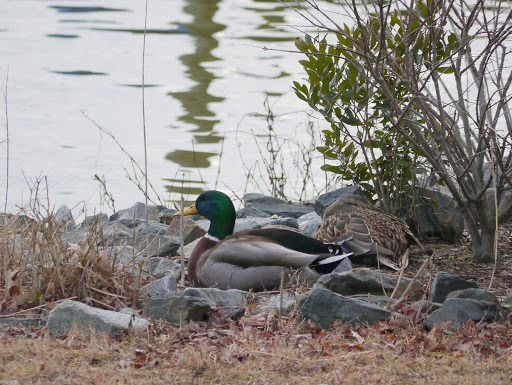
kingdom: Animalia
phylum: Chordata
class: Aves
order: Anseriformes
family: Anatidae
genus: Anas
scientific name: Anas platyrhynchos
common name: Mallard
